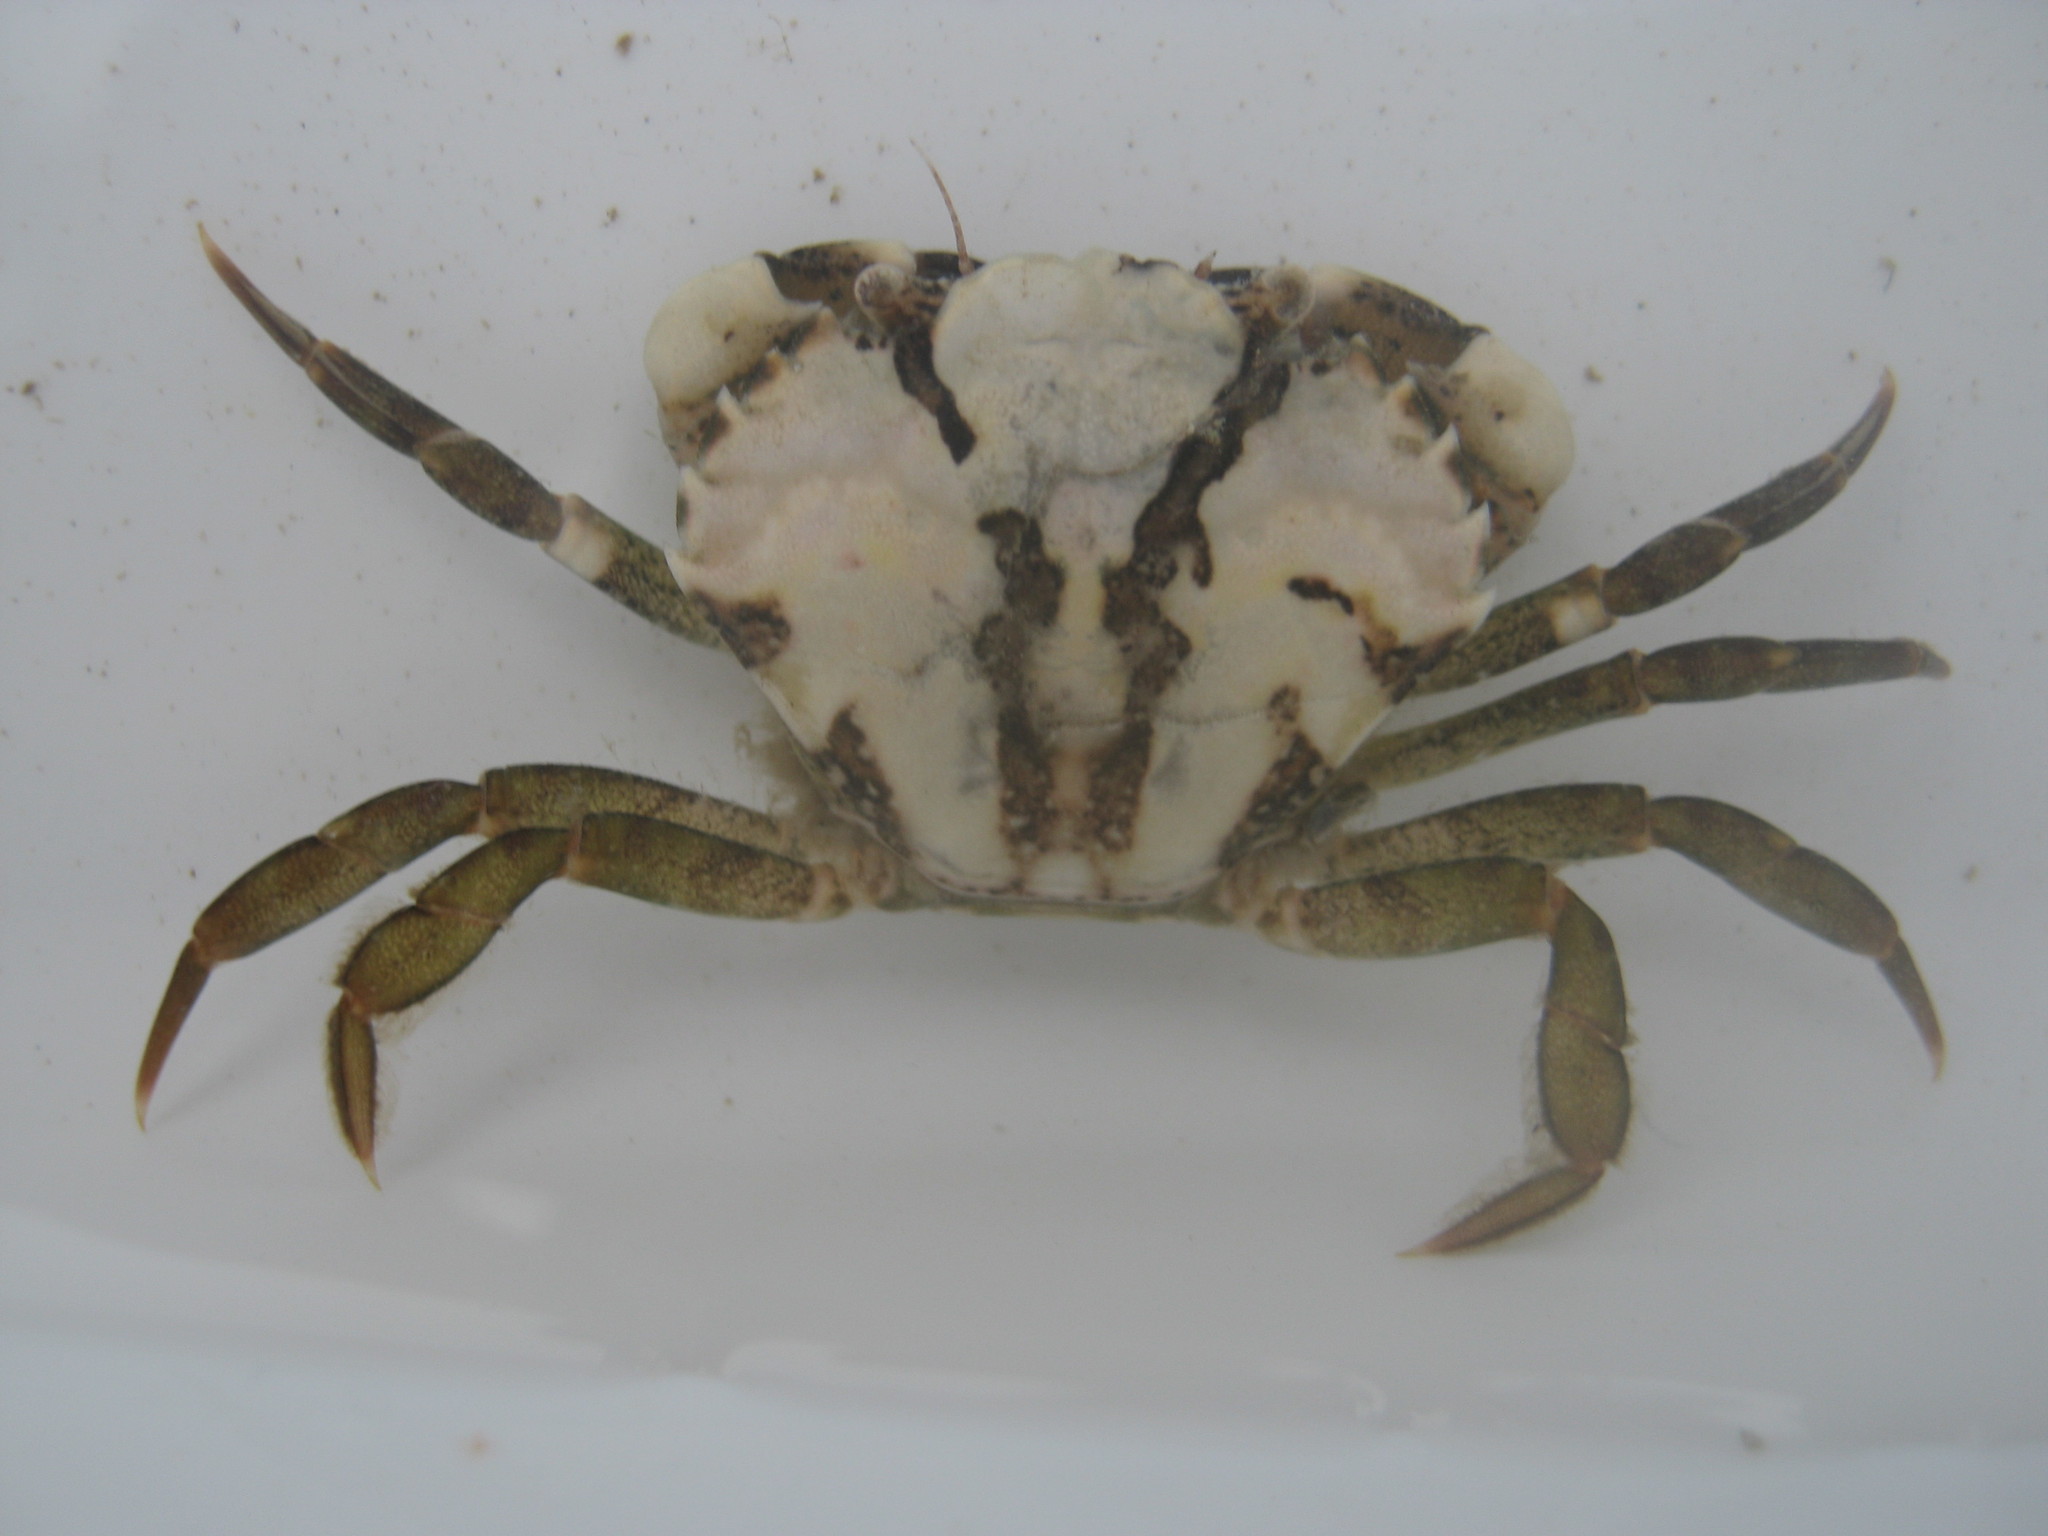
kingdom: Animalia
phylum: Arthropoda
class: Malacostraca
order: Decapoda
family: Carcinidae
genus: Carcinus
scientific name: Carcinus maenas
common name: European green crab
